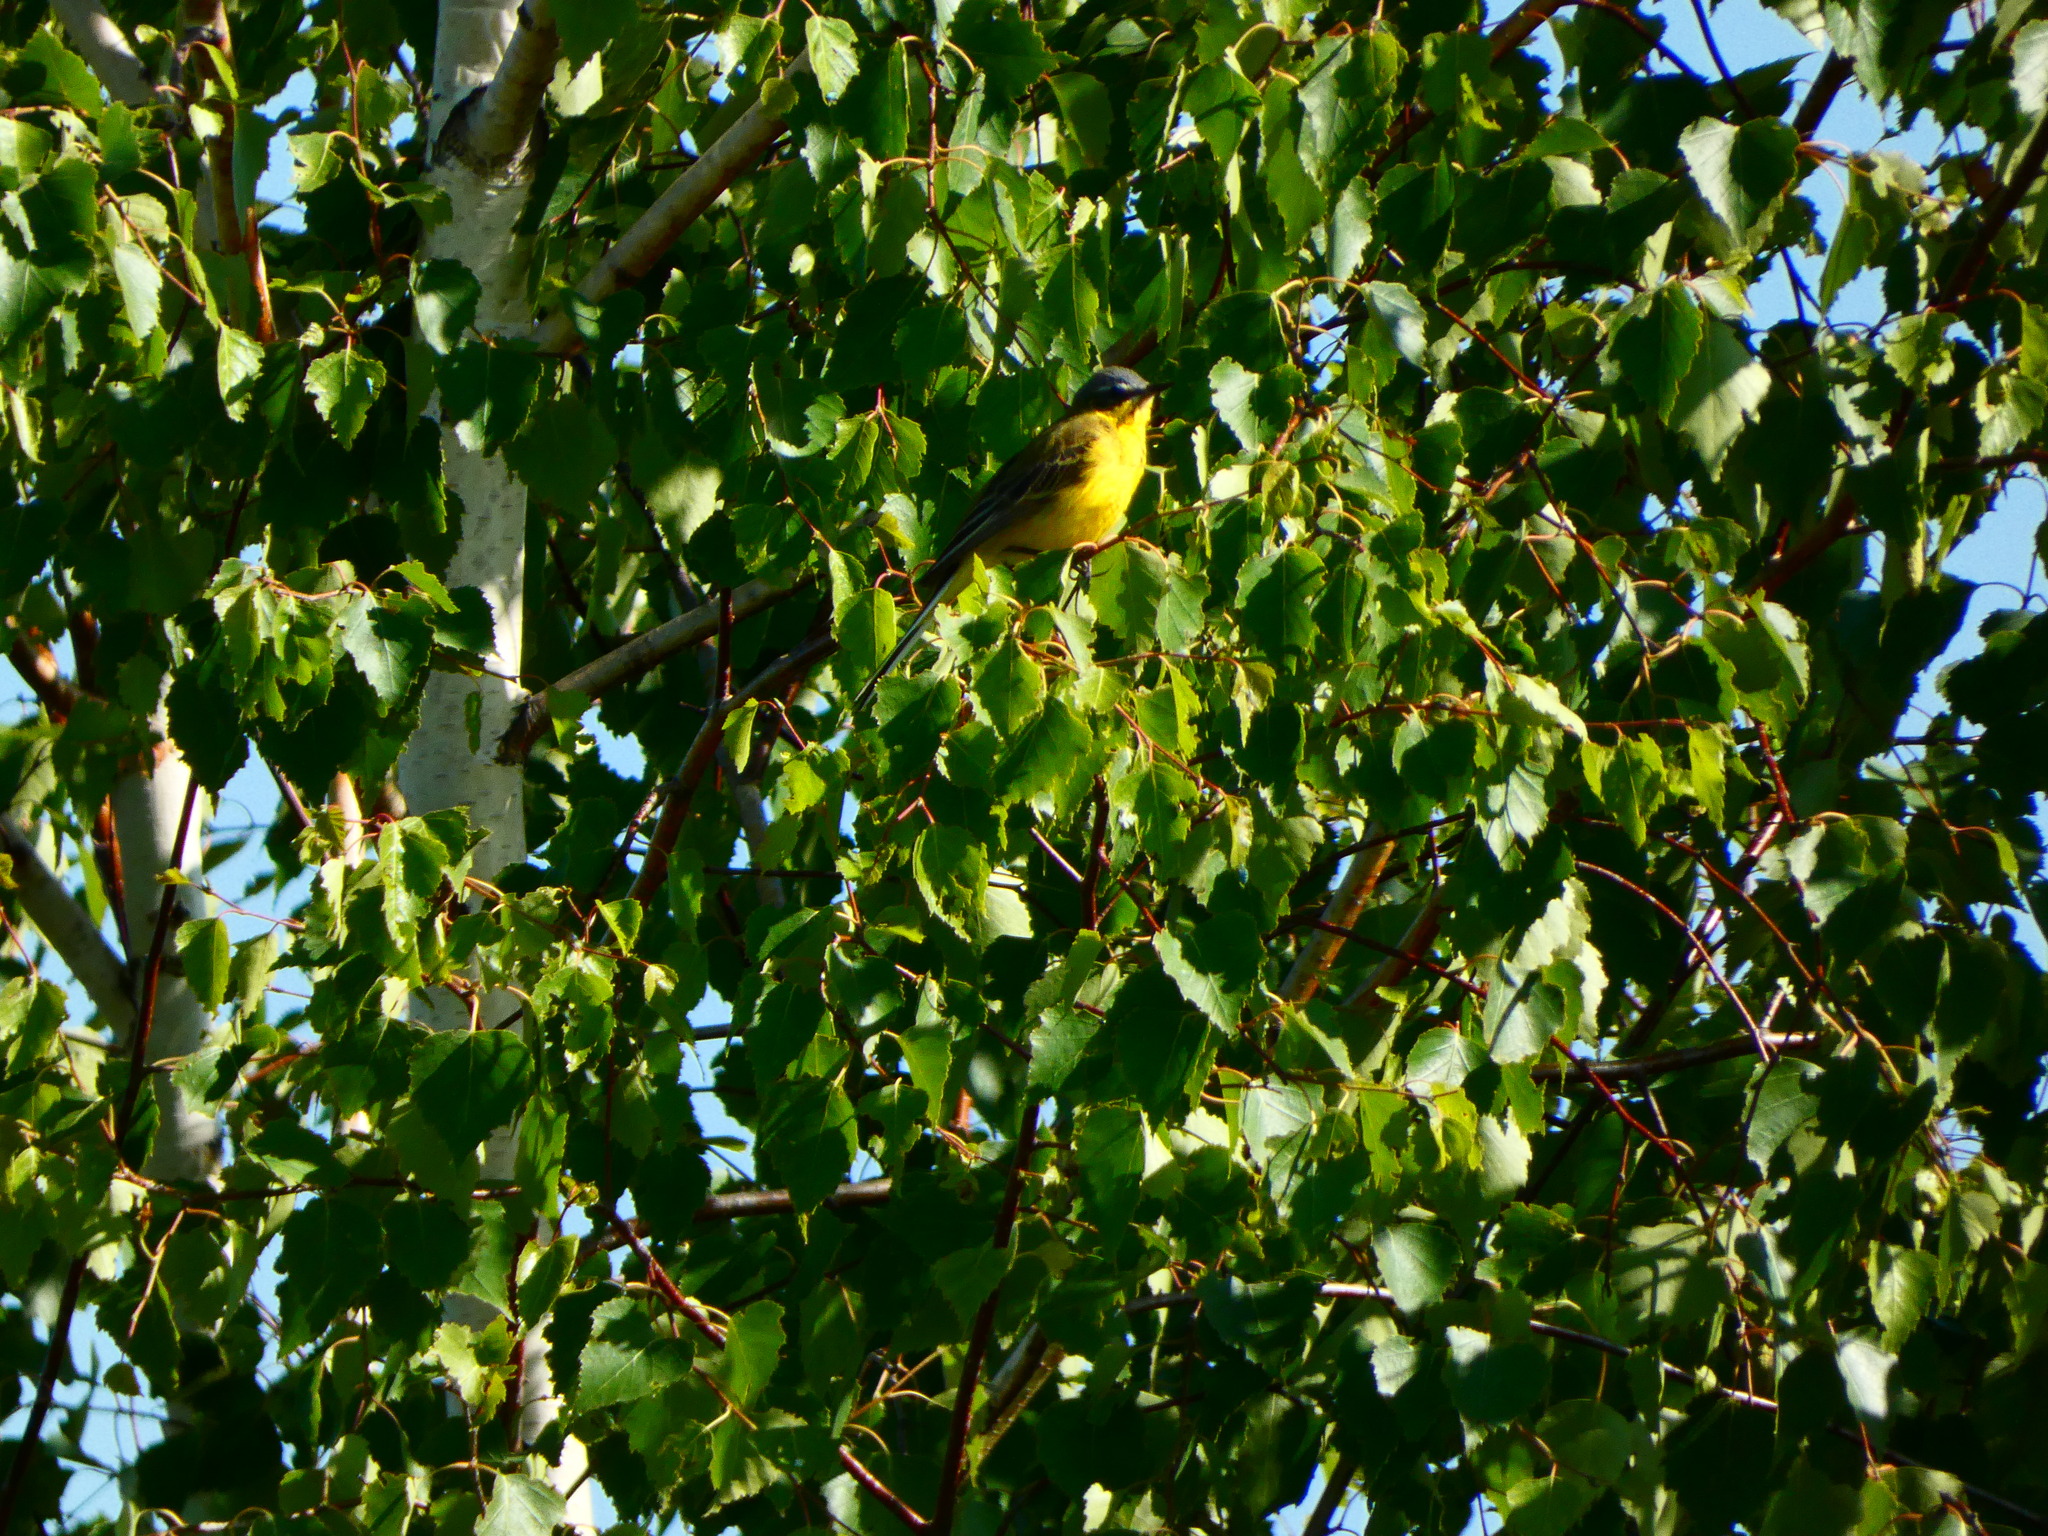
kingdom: Animalia
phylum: Chordata
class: Aves
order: Passeriformes
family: Motacillidae
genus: Motacilla
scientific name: Motacilla flava
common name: Western yellow wagtail
